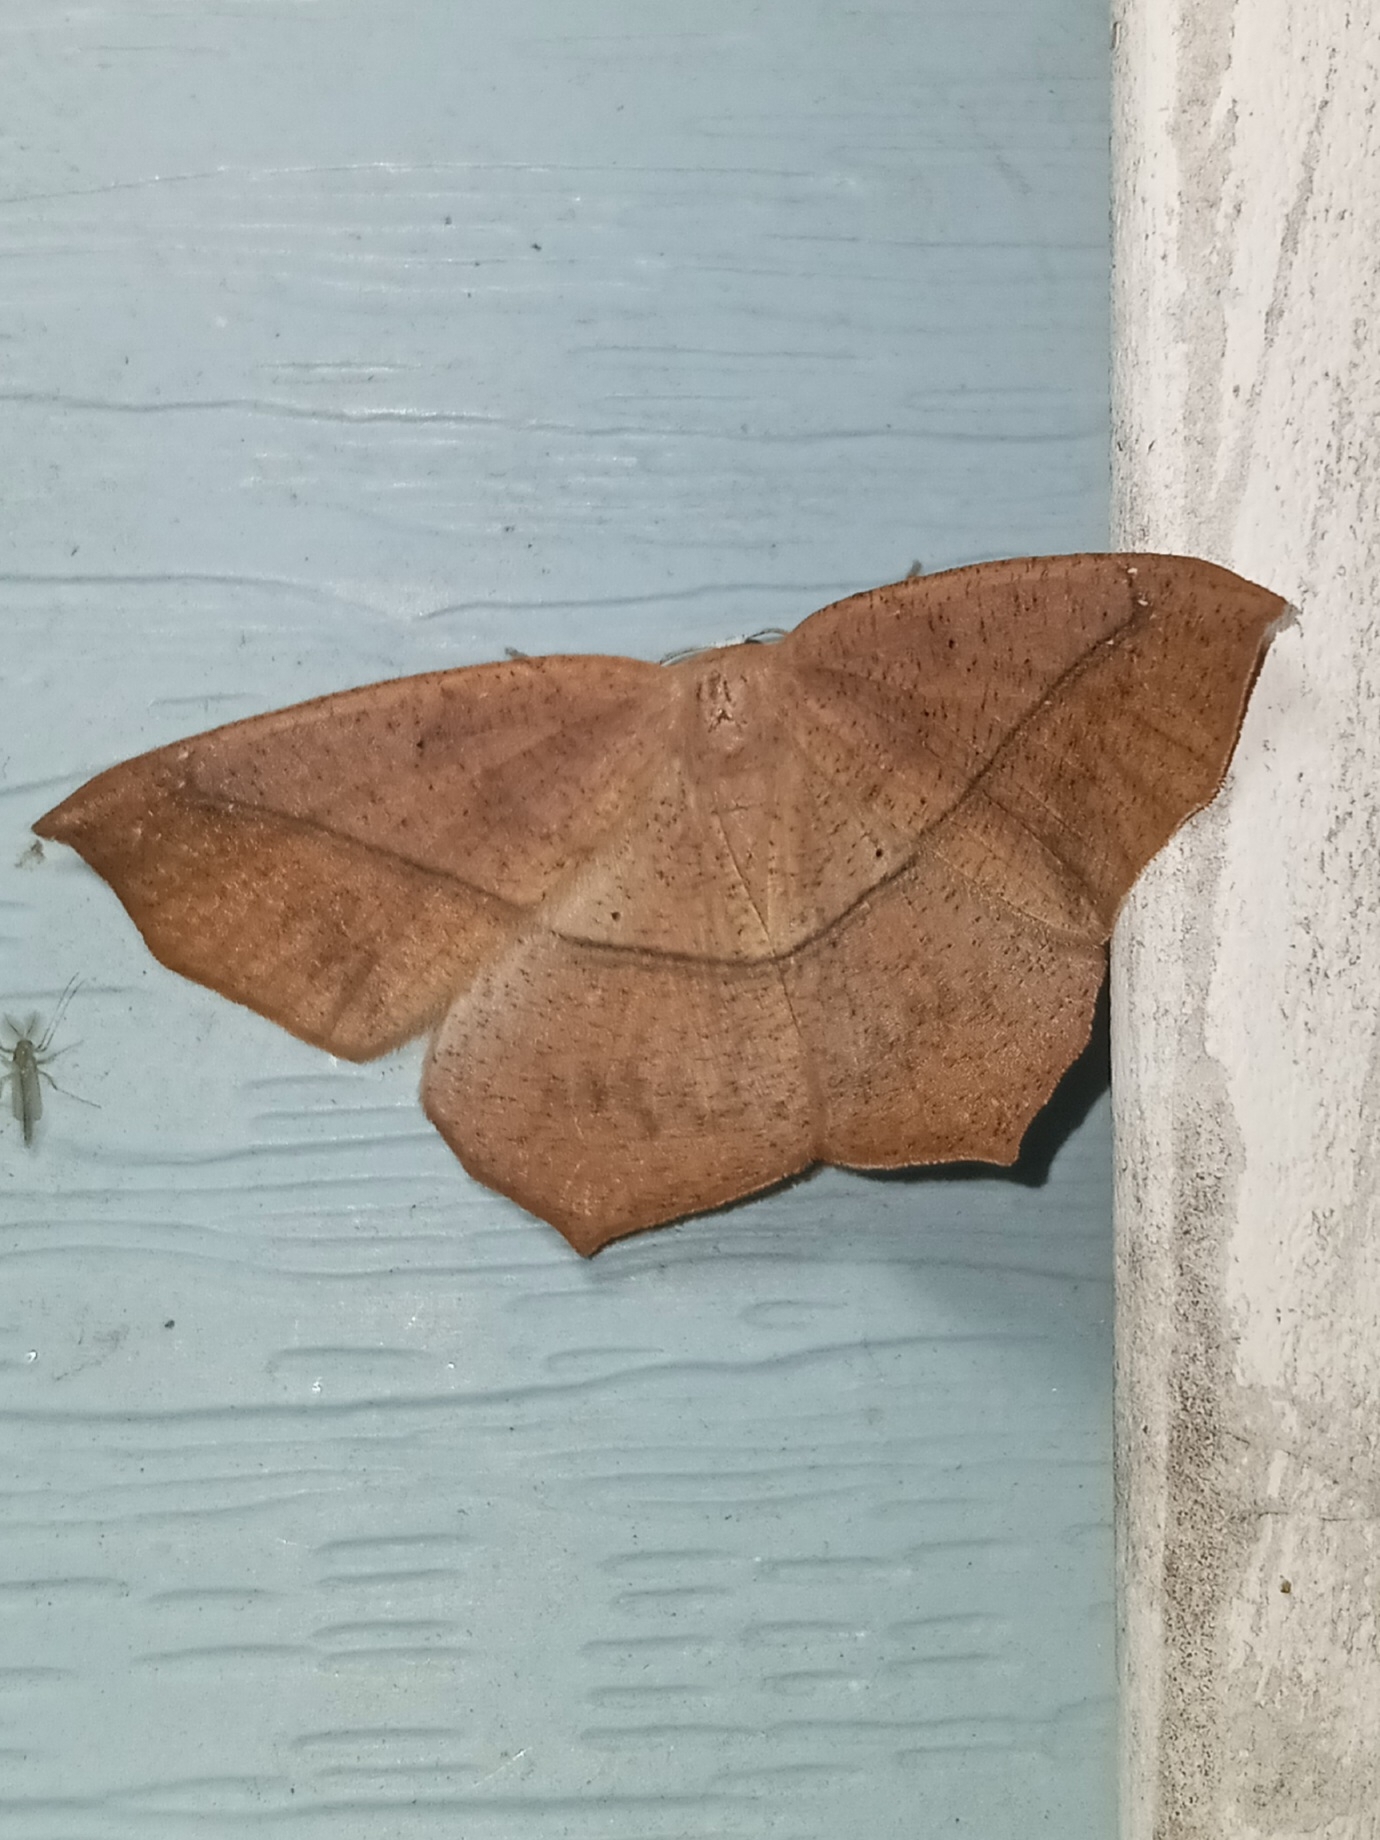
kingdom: Animalia
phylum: Arthropoda
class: Insecta
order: Lepidoptera
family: Geometridae
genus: Prochoerodes
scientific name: Prochoerodes lineola
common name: Large maple spanworm
